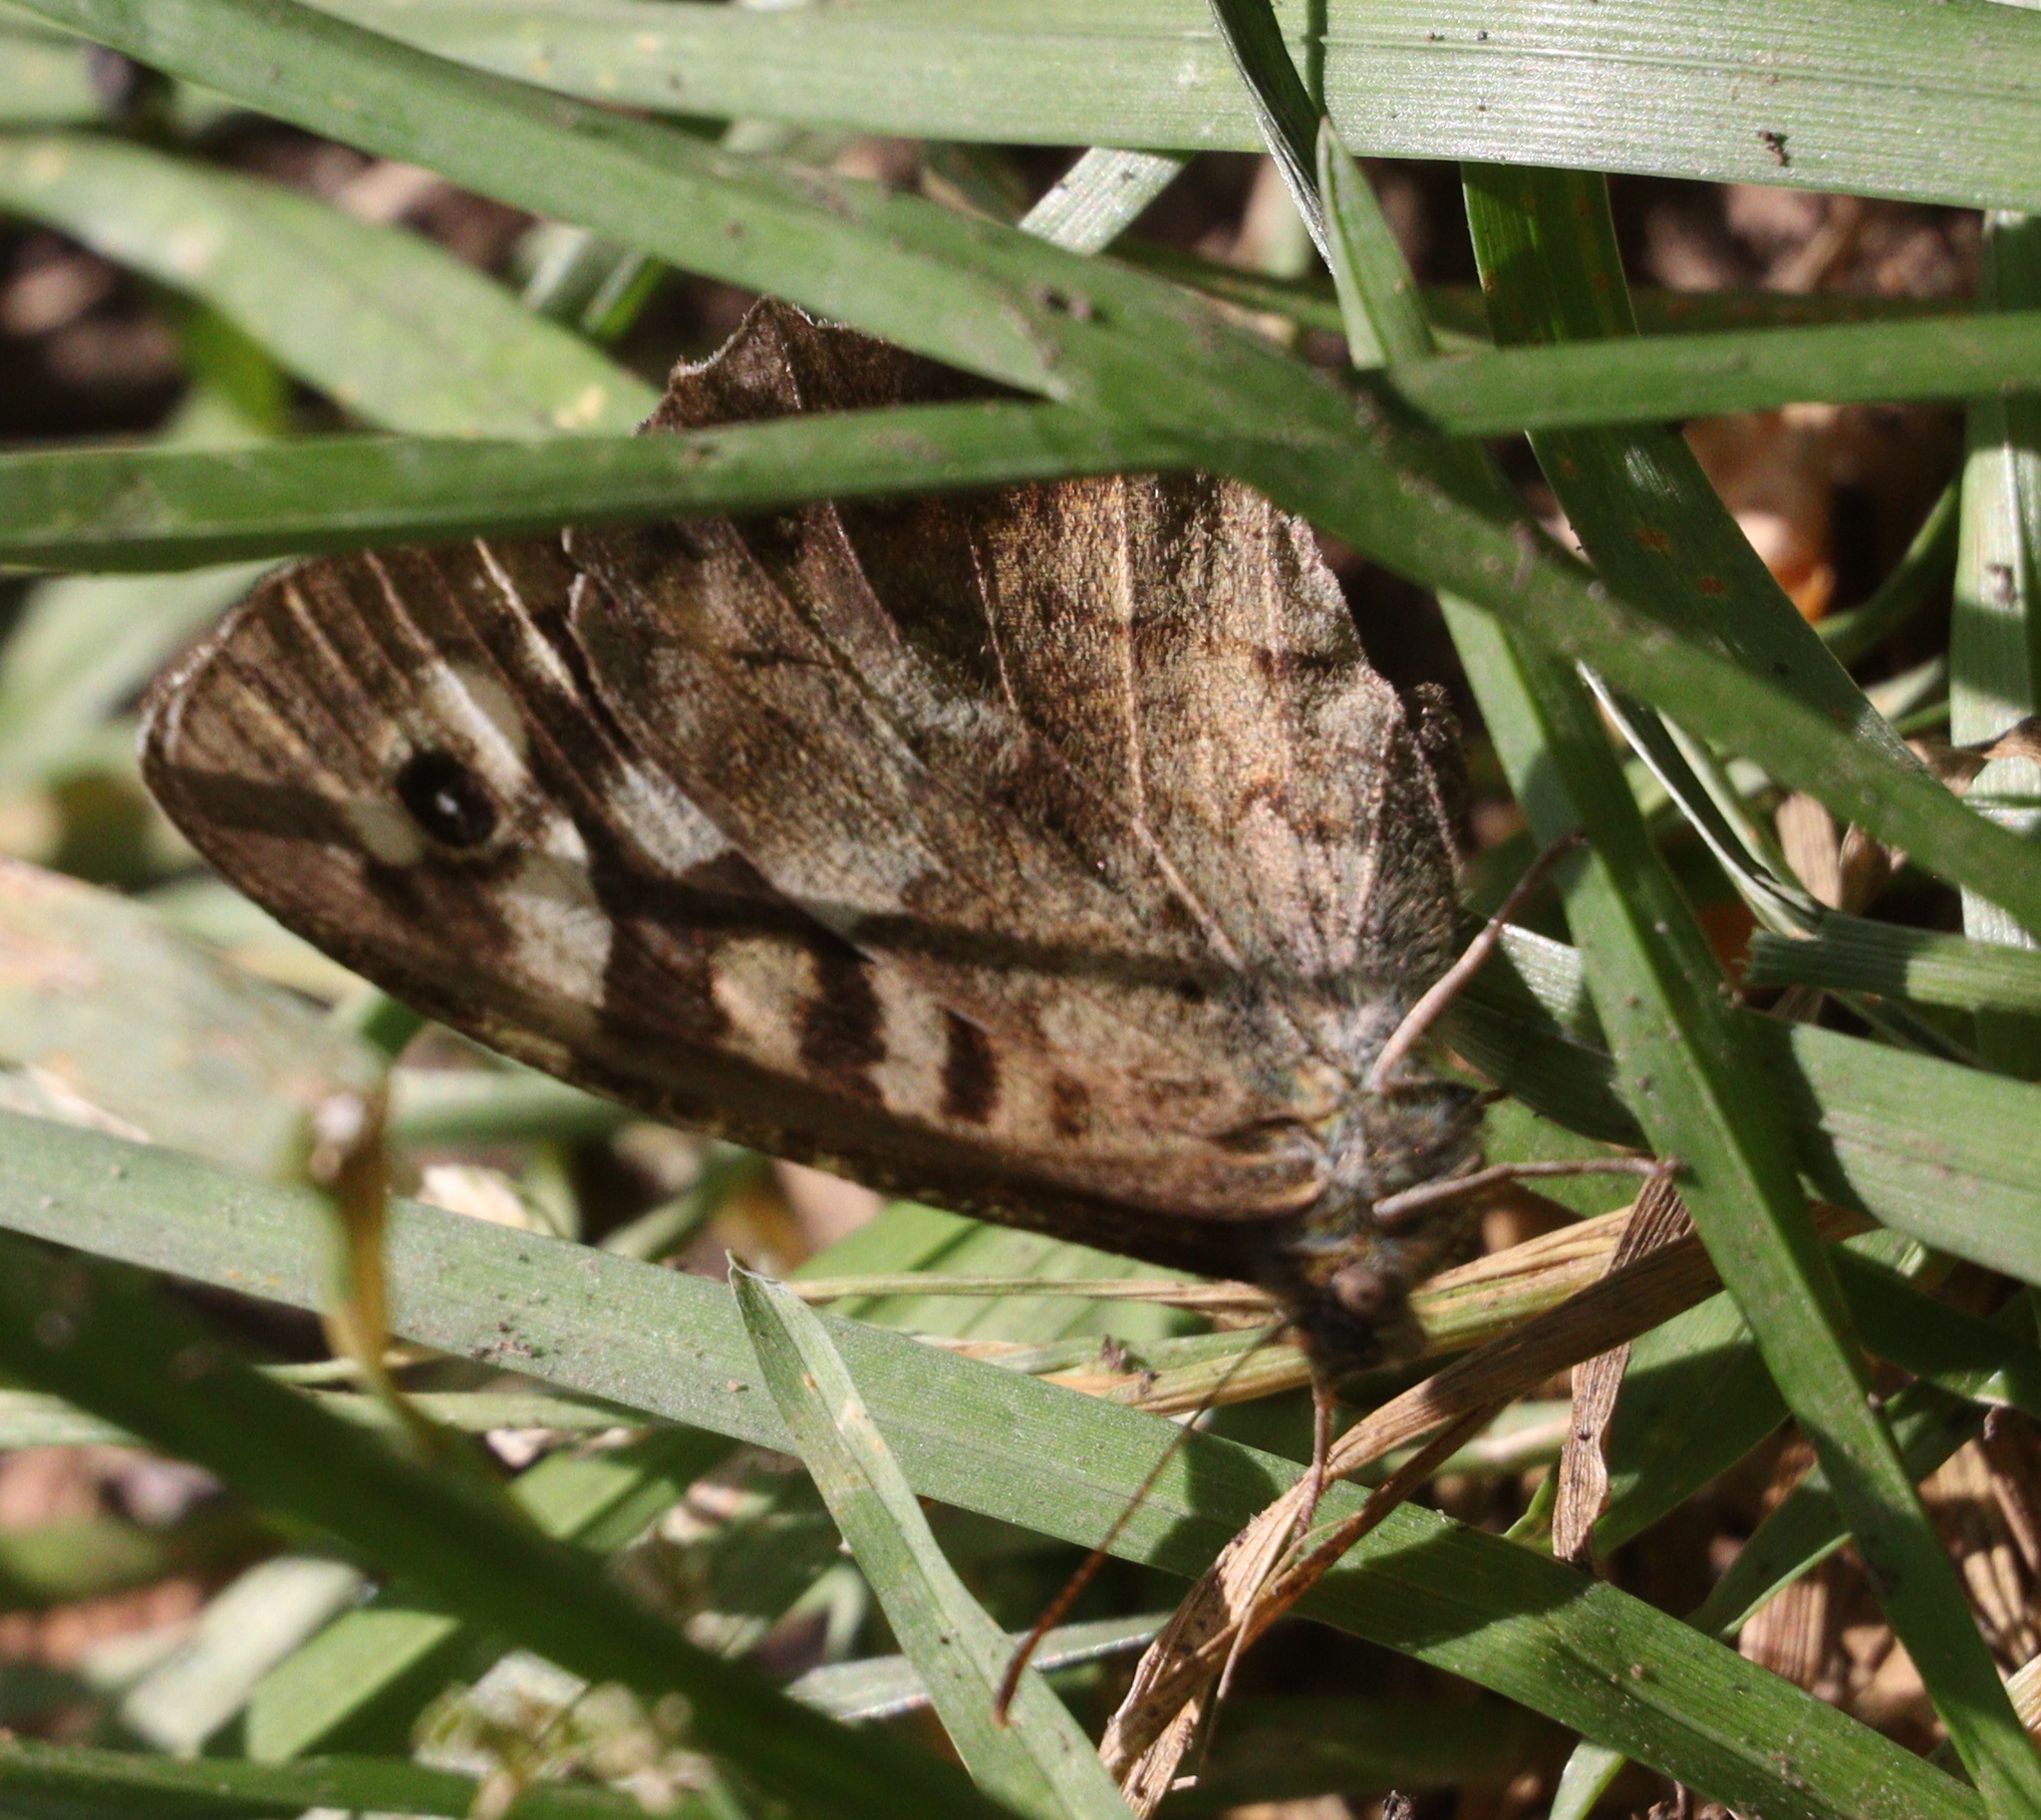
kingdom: Animalia
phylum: Arthropoda
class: Insecta
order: Lepidoptera
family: Nymphalidae
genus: Pararge
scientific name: Pararge aegeria
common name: Speckled wood
